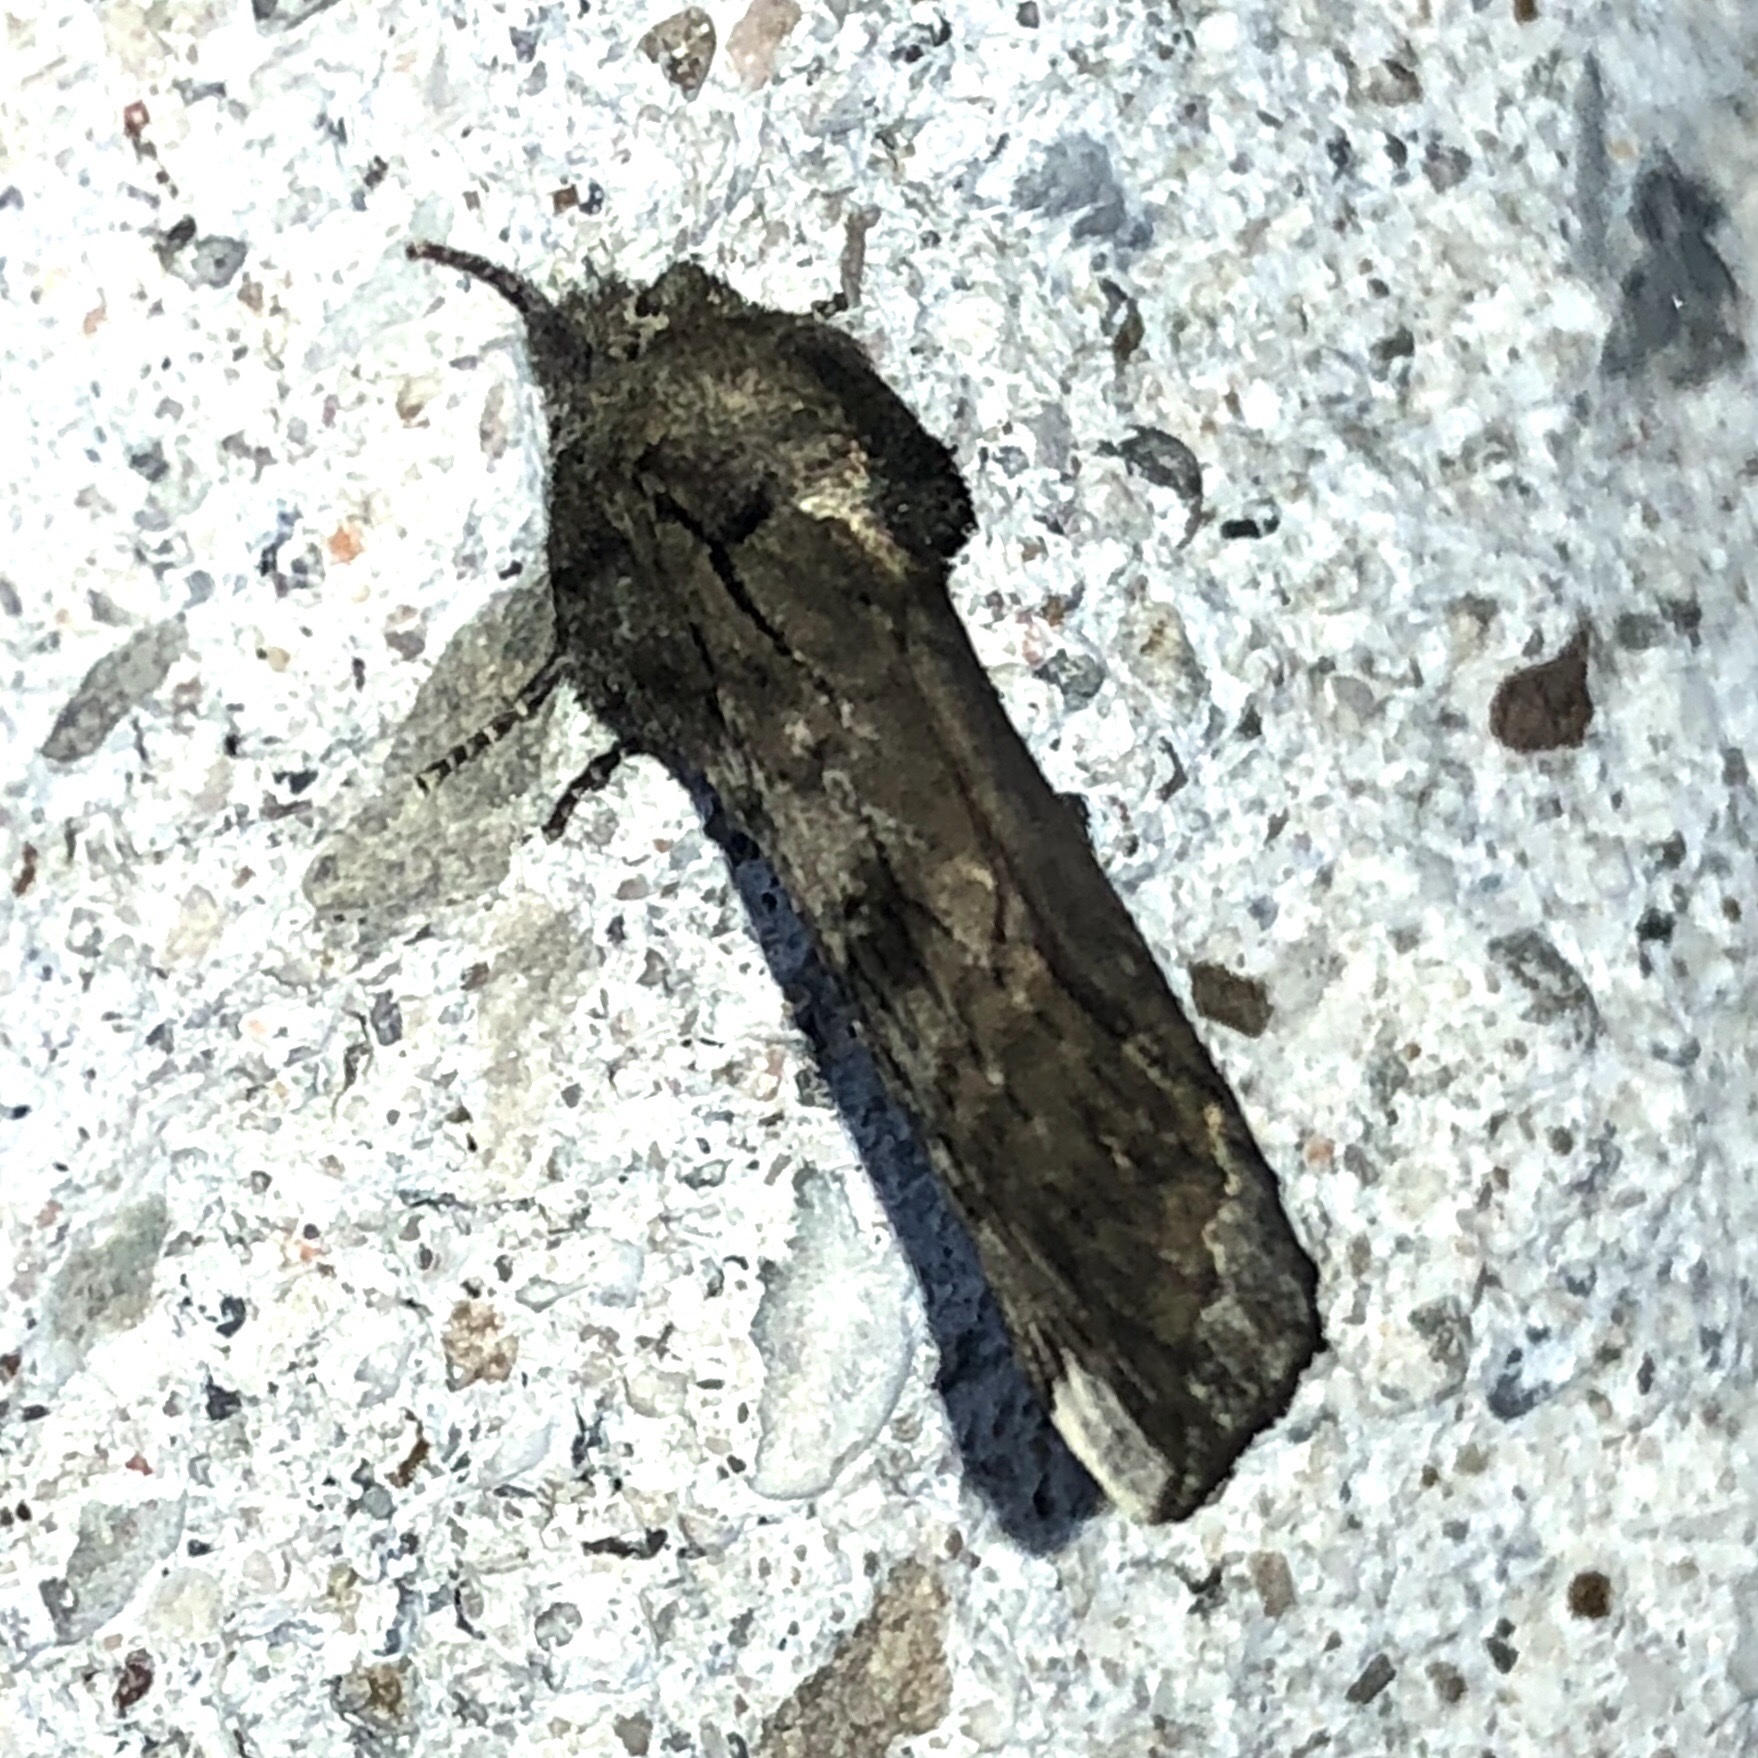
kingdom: Animalia
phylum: Arthropoda
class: Insecta
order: Lepidoptera
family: Notodontidae
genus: Schizura
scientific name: Schizura
